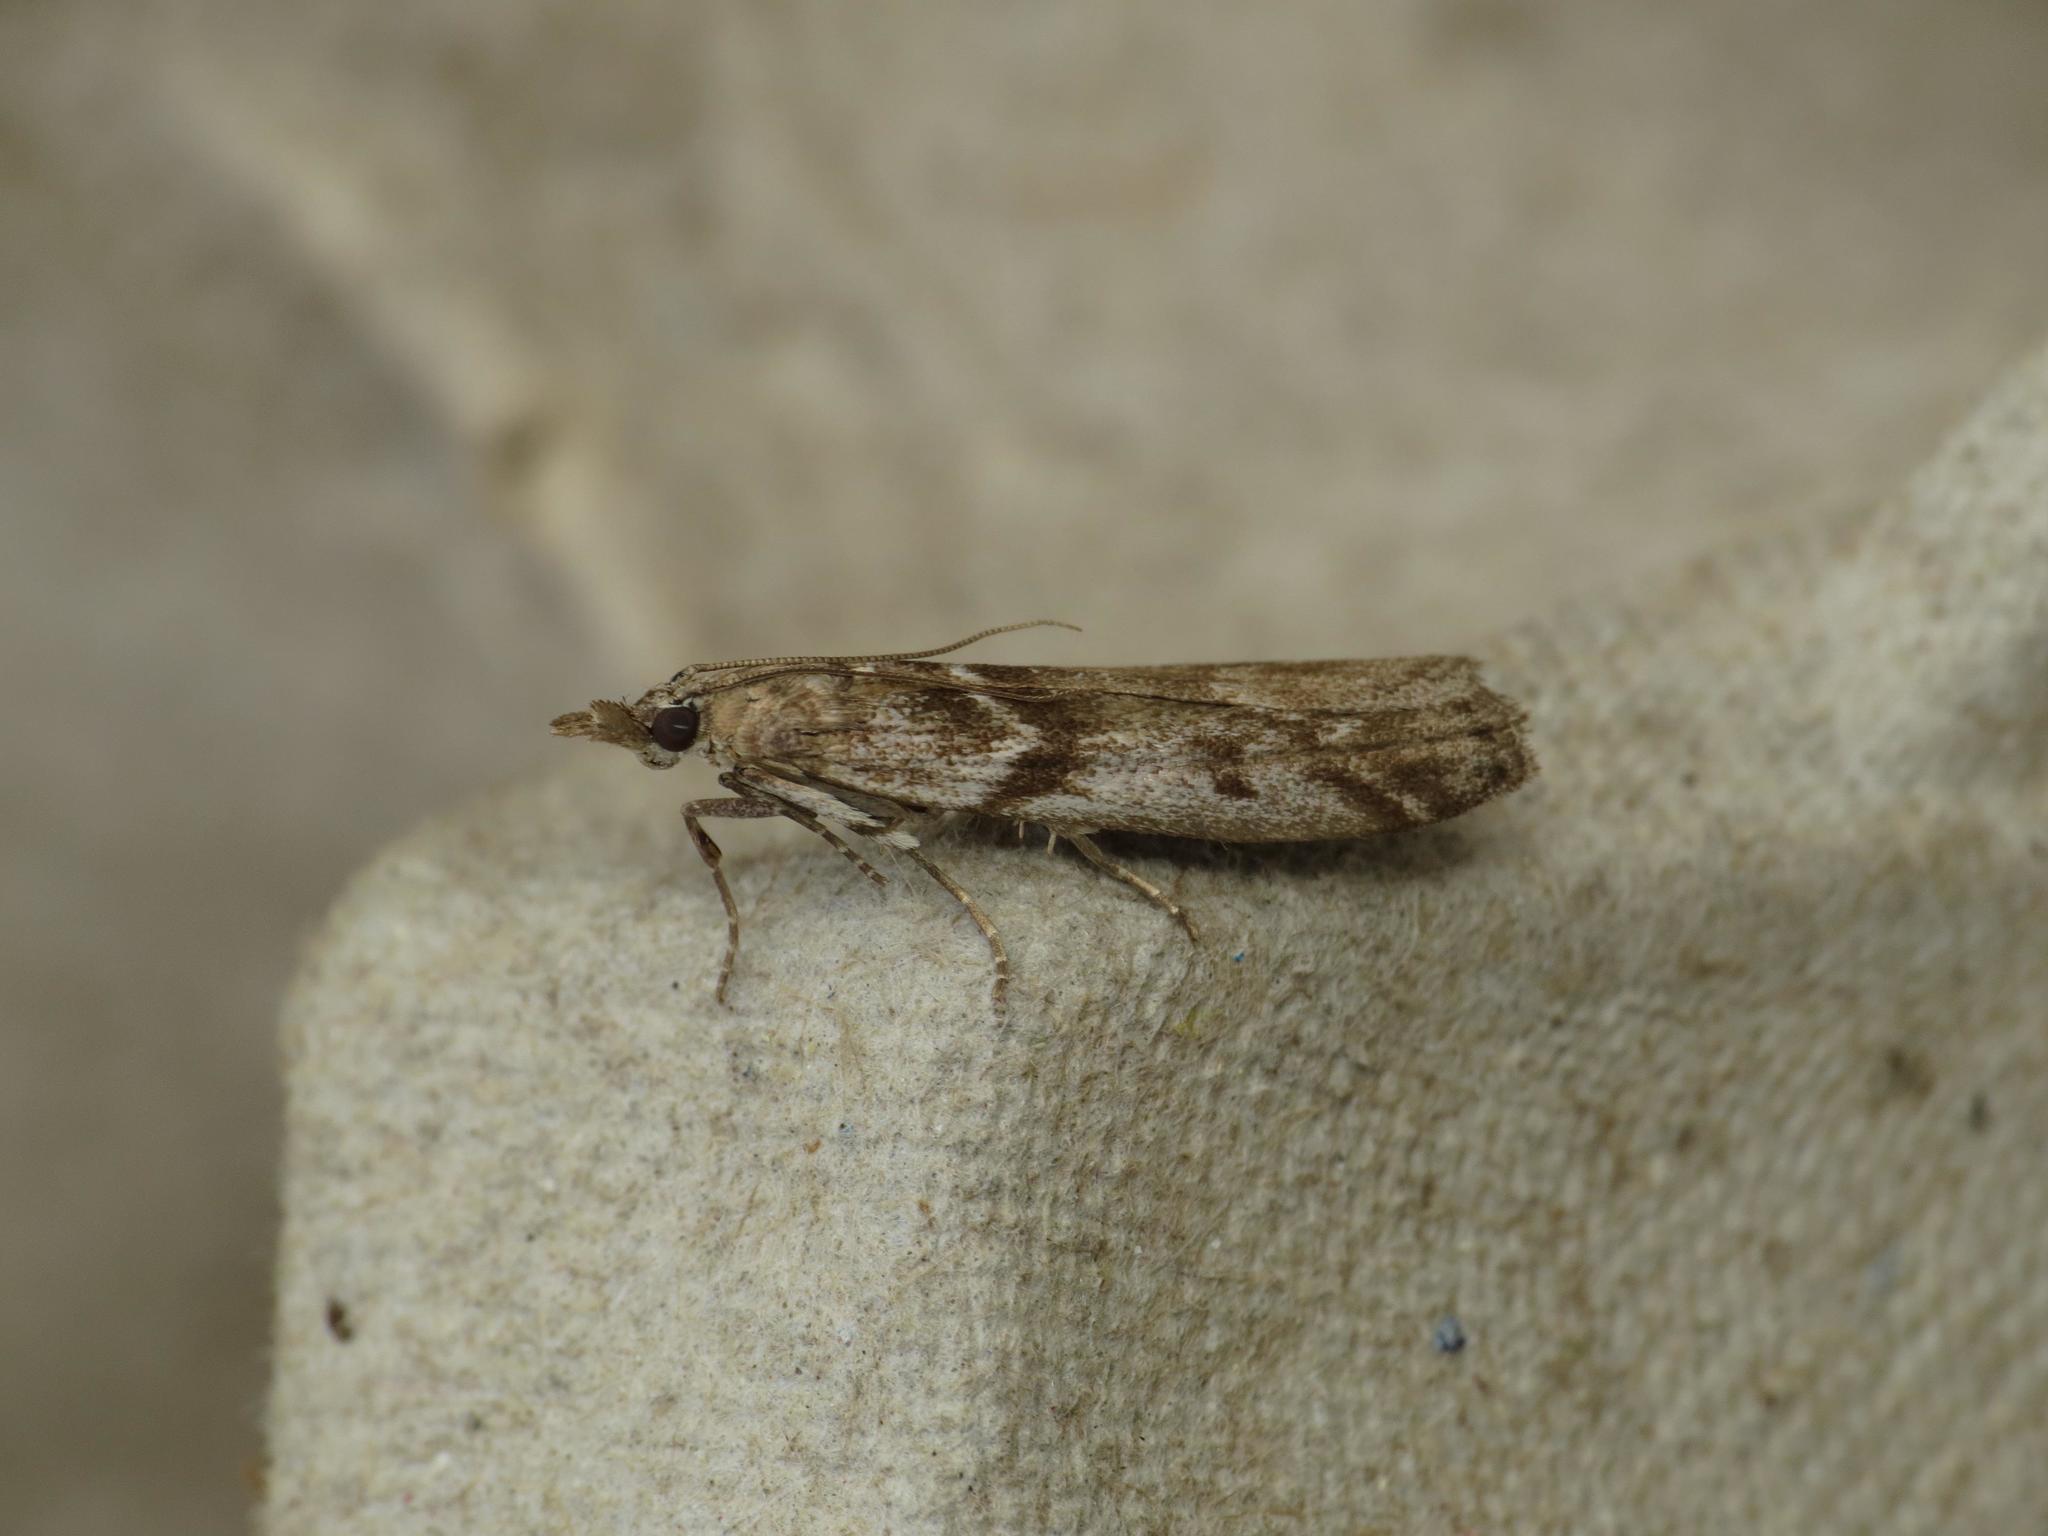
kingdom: Animalia
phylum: Arthropoda
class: Insecta
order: Lepidoptera
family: Pyralidae
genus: Zophodia
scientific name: Zophodia convolutella
